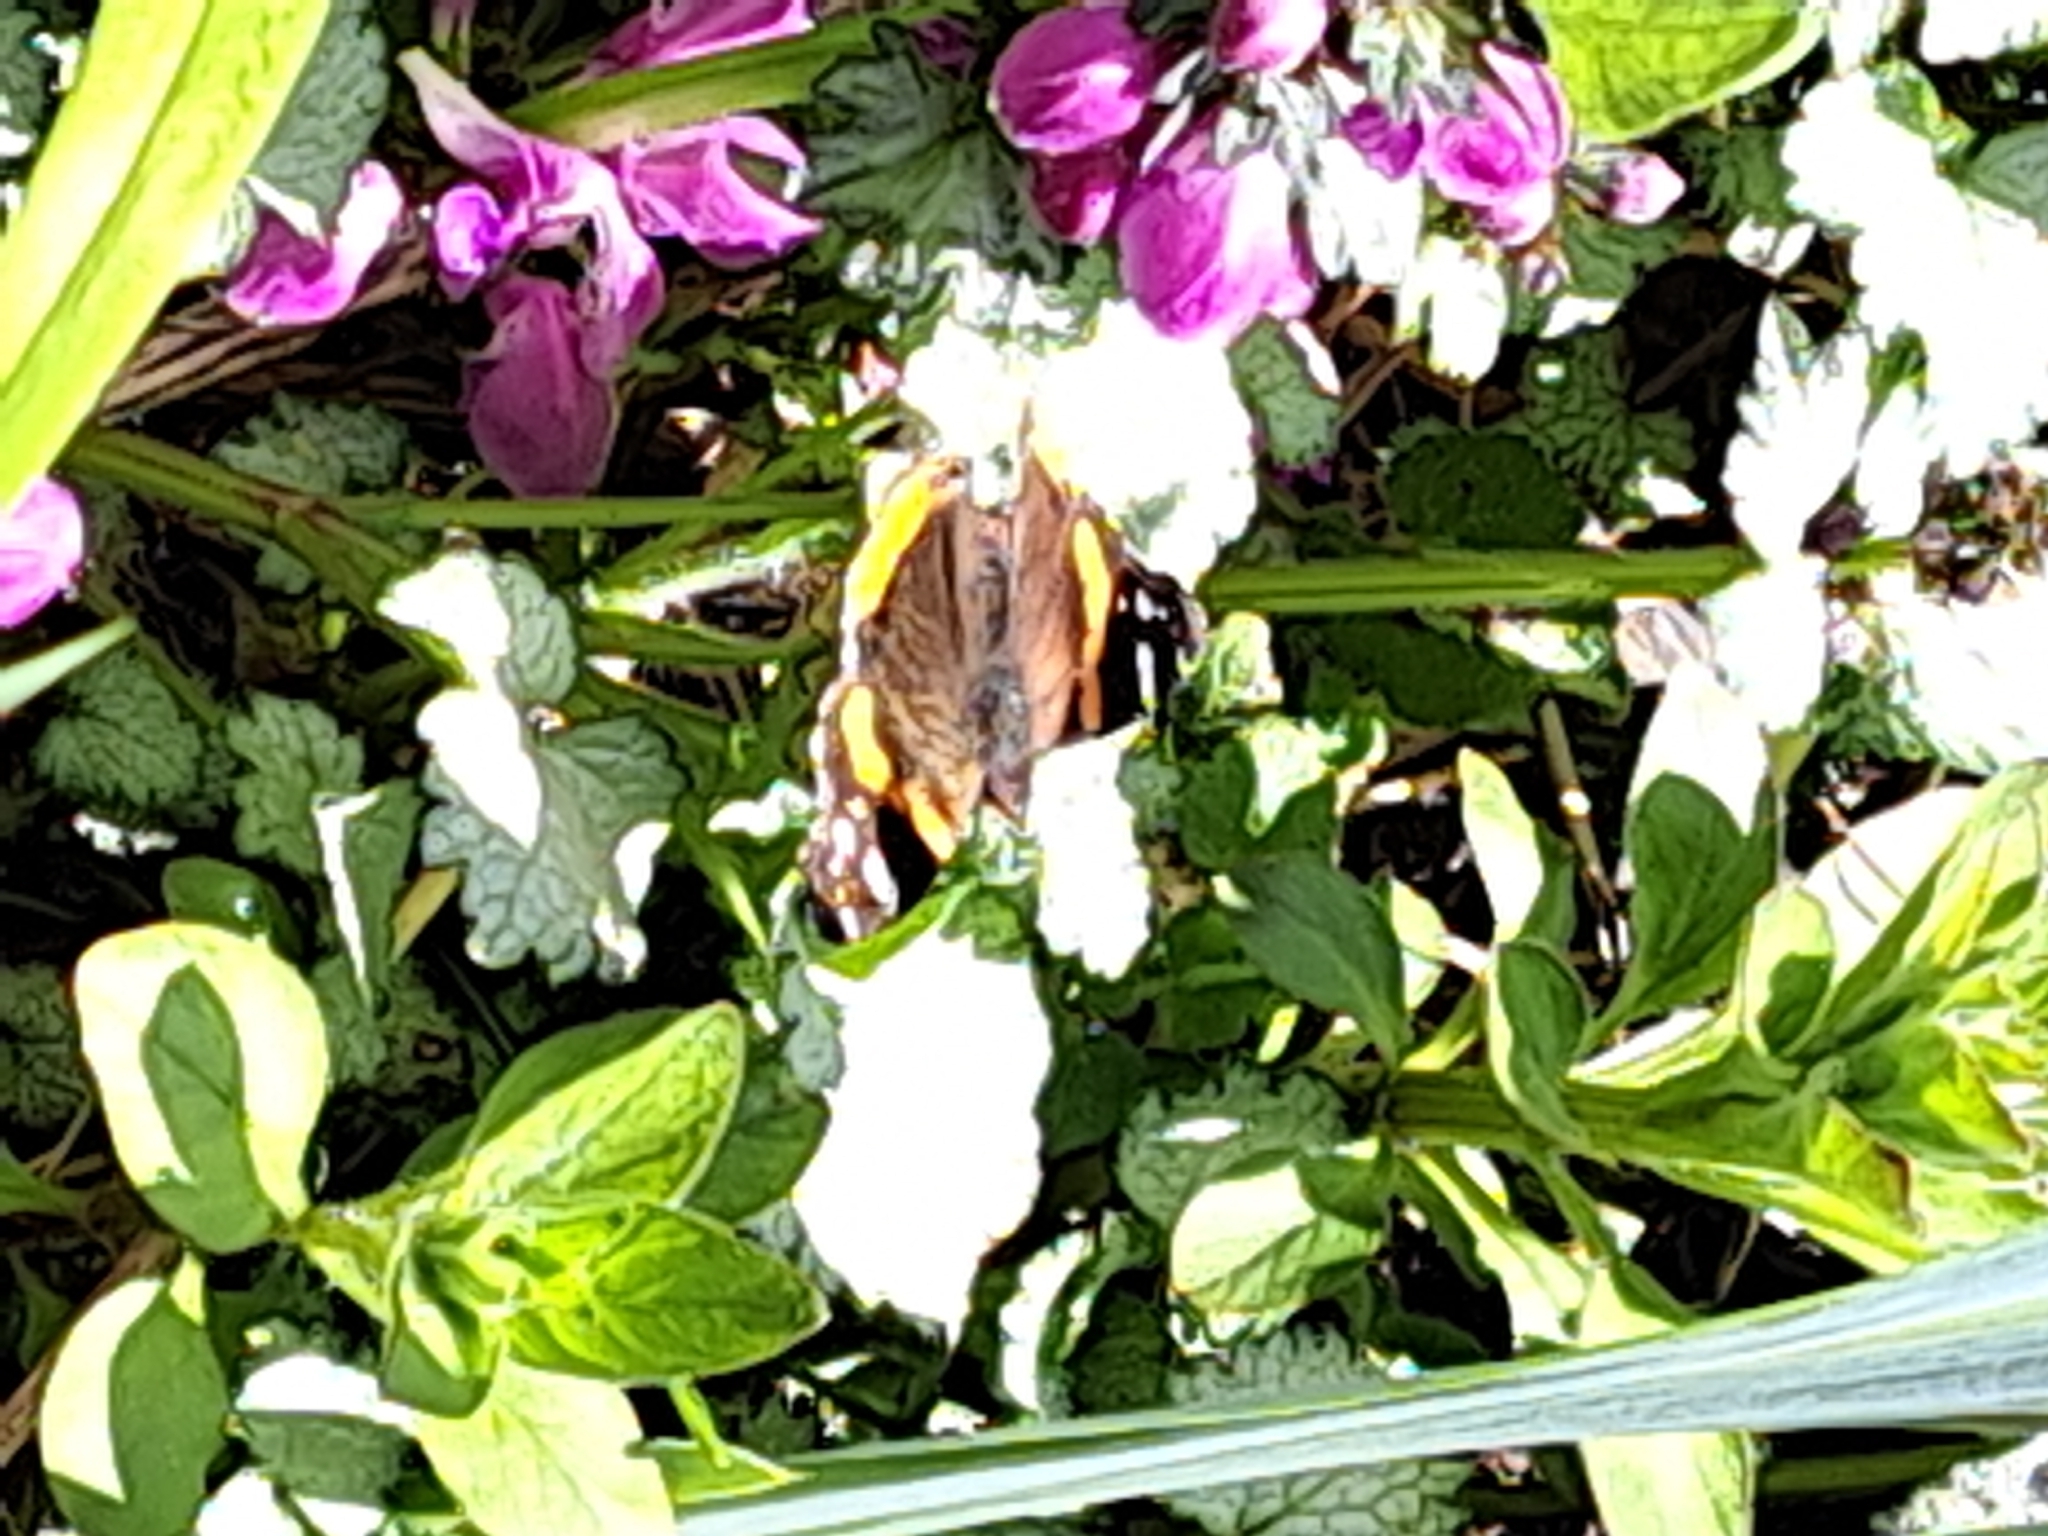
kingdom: Animalia
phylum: Arthropoda
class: Insecta
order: Lepidoptera
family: Nymphalidae
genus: Vanessa
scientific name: Vanessa atalanta
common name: Red admiral
